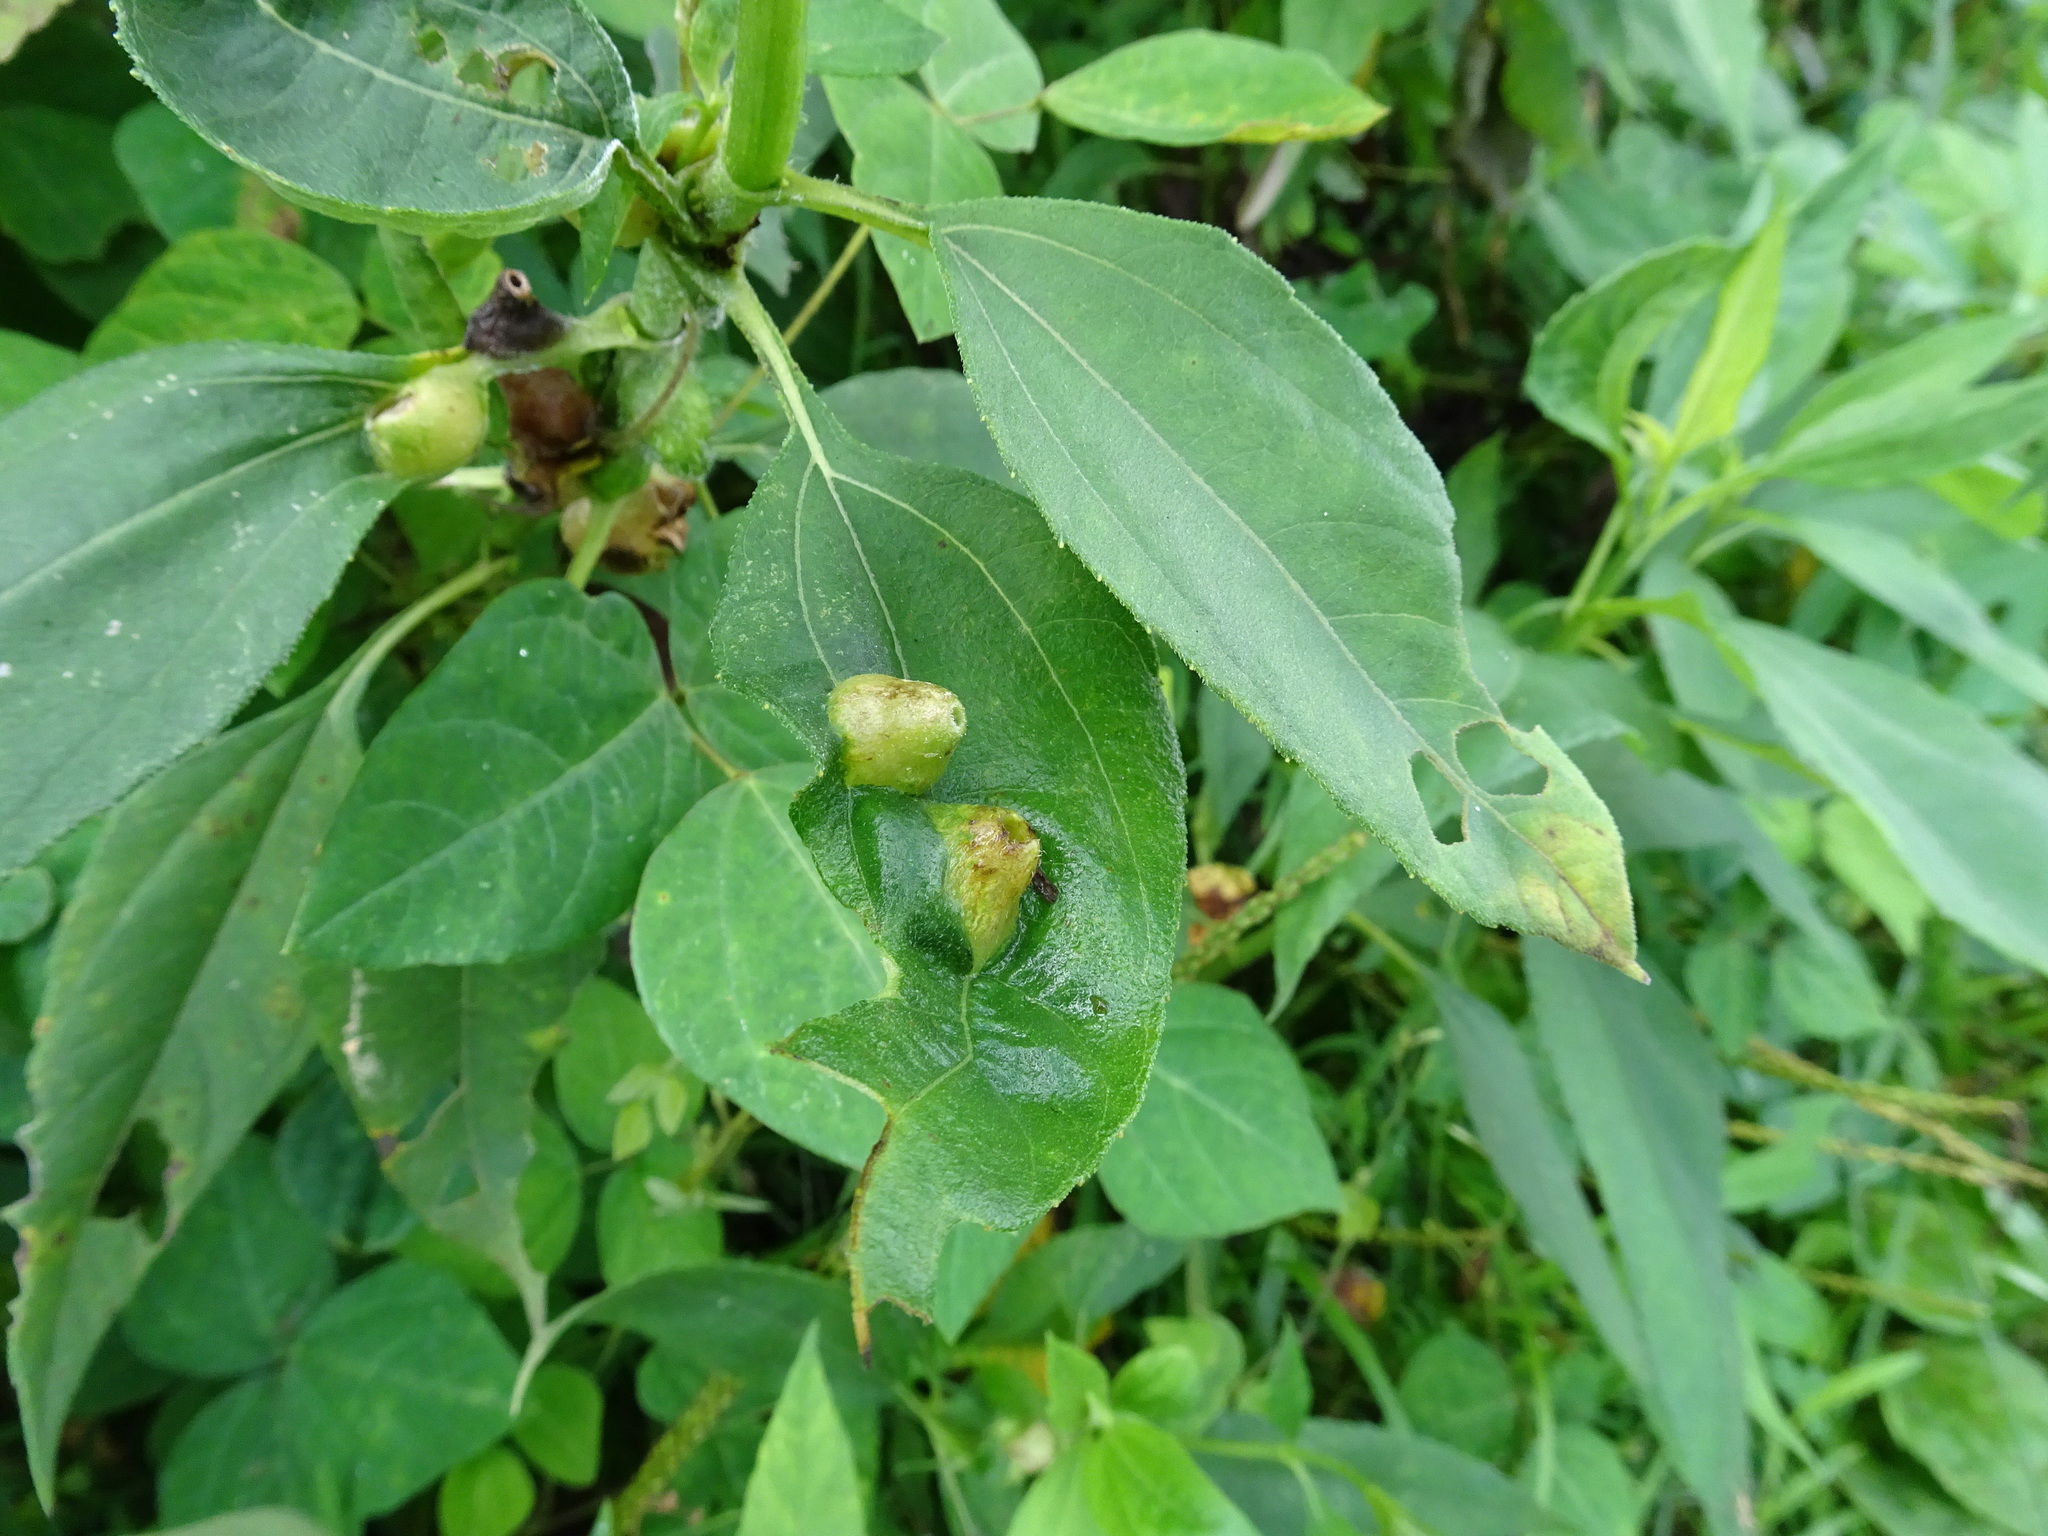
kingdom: Animalia
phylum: Arthropoda
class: Insecta
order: Diptera
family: Cecidomyiidae
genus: Pilodiplosis
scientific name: Pilodiplosis helianthibulla
